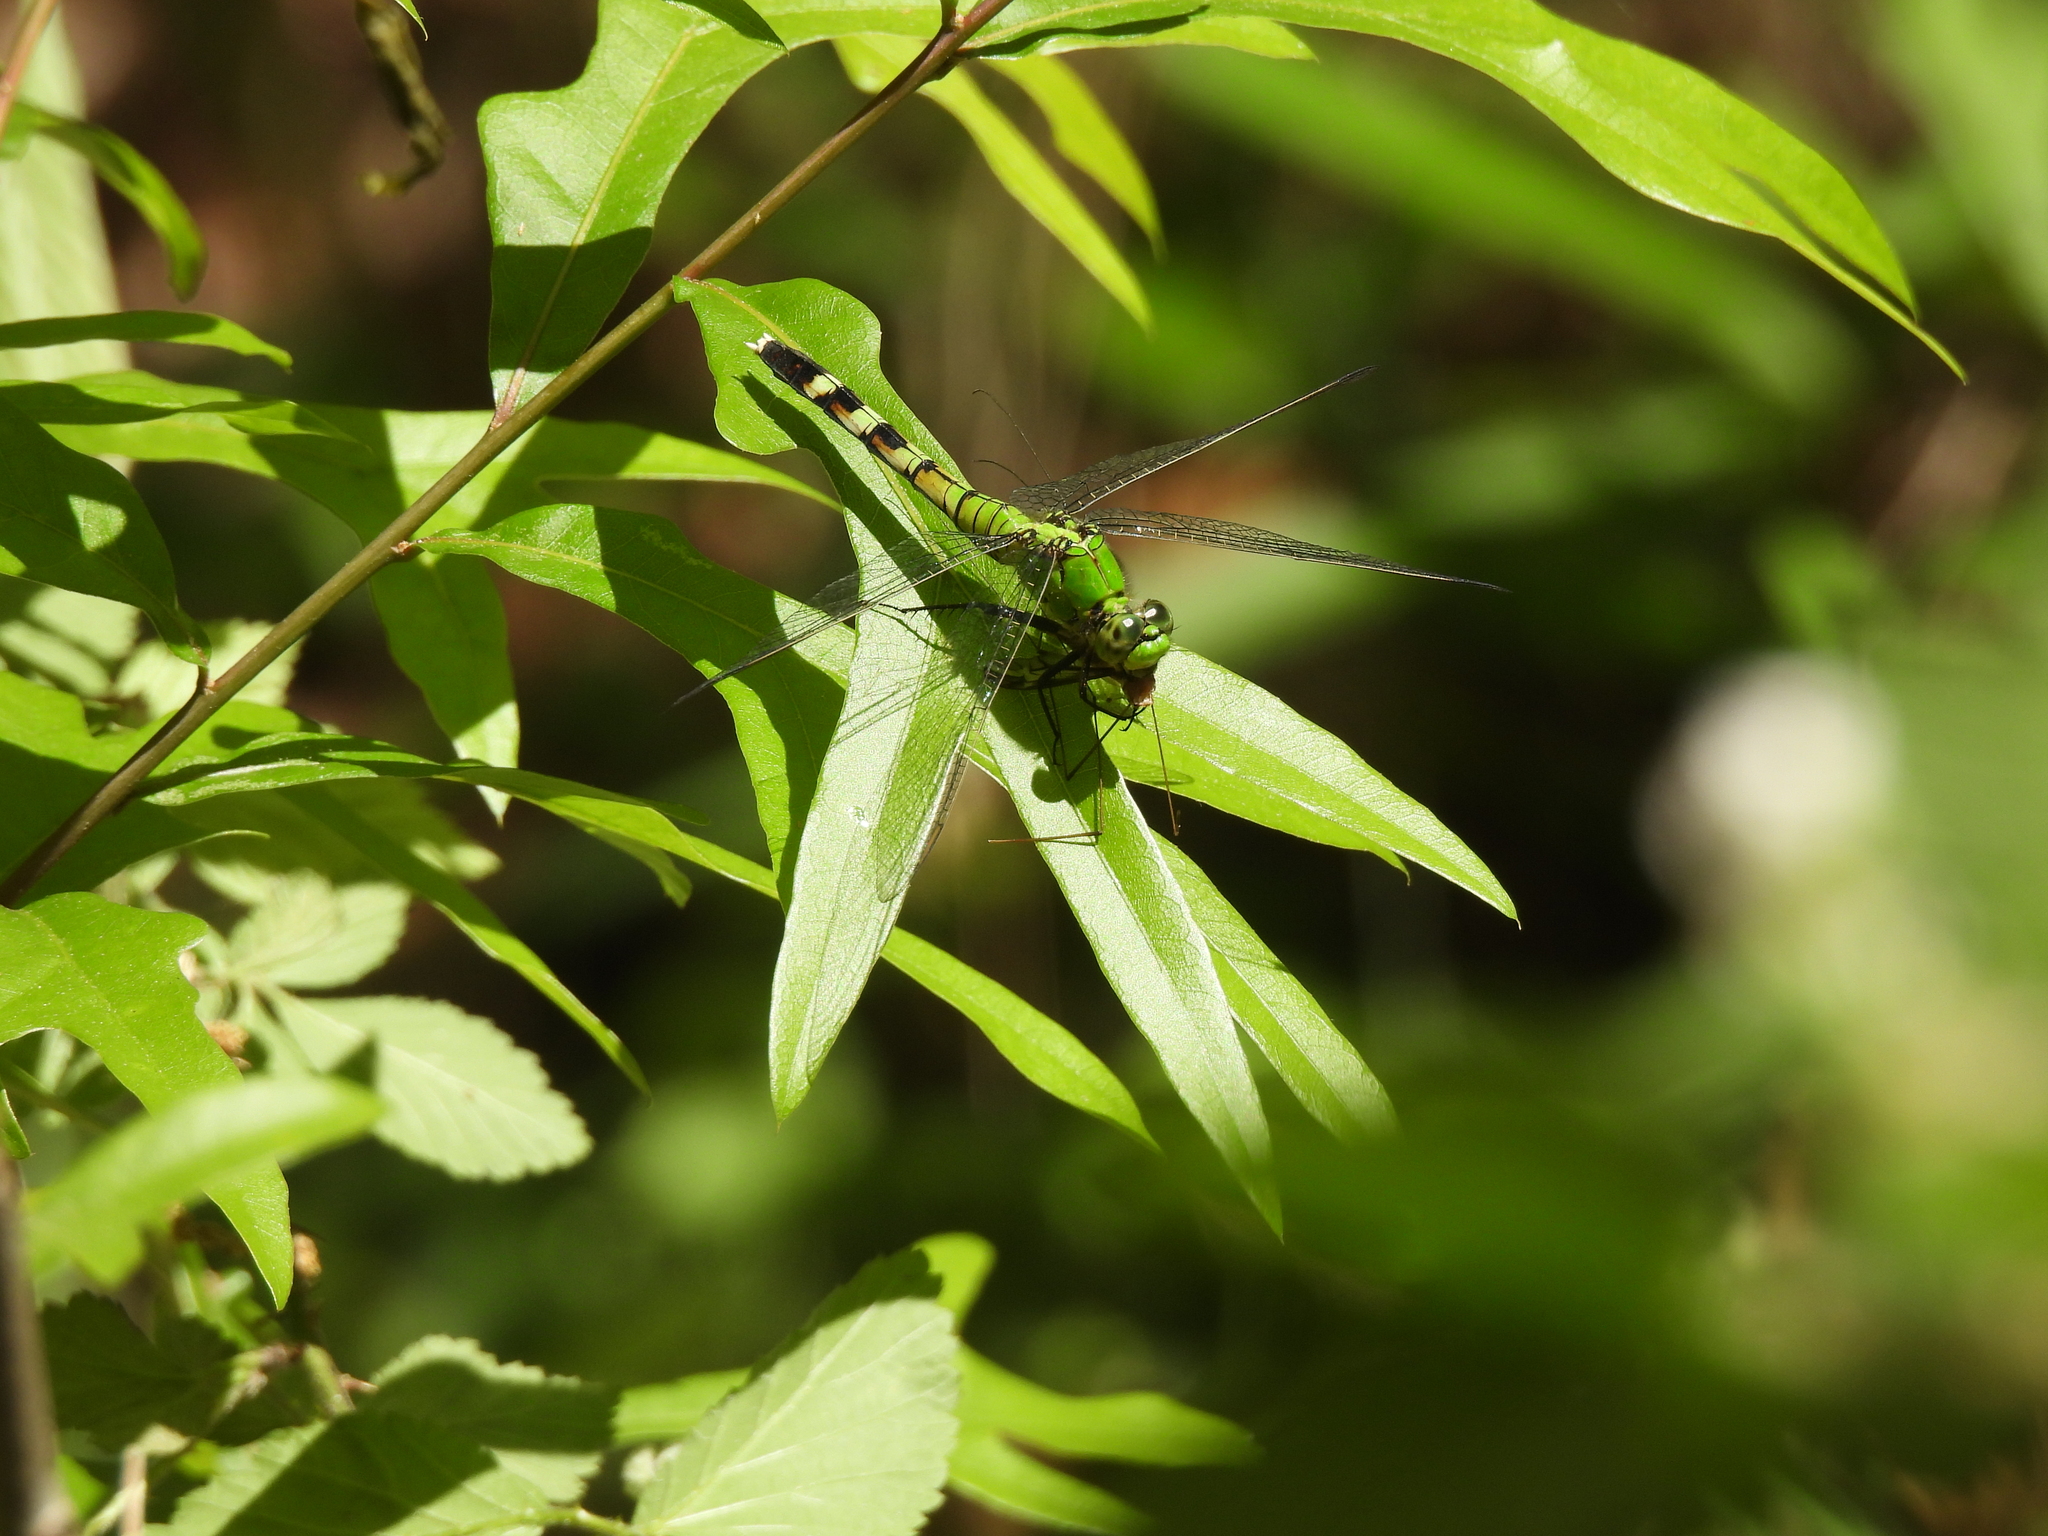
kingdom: Animalia
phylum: Arthropoda
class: Insecta
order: Odonata
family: Libellulidae
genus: Erythemis
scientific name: Erythemis simplicicollis
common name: Eastern pondhawk
